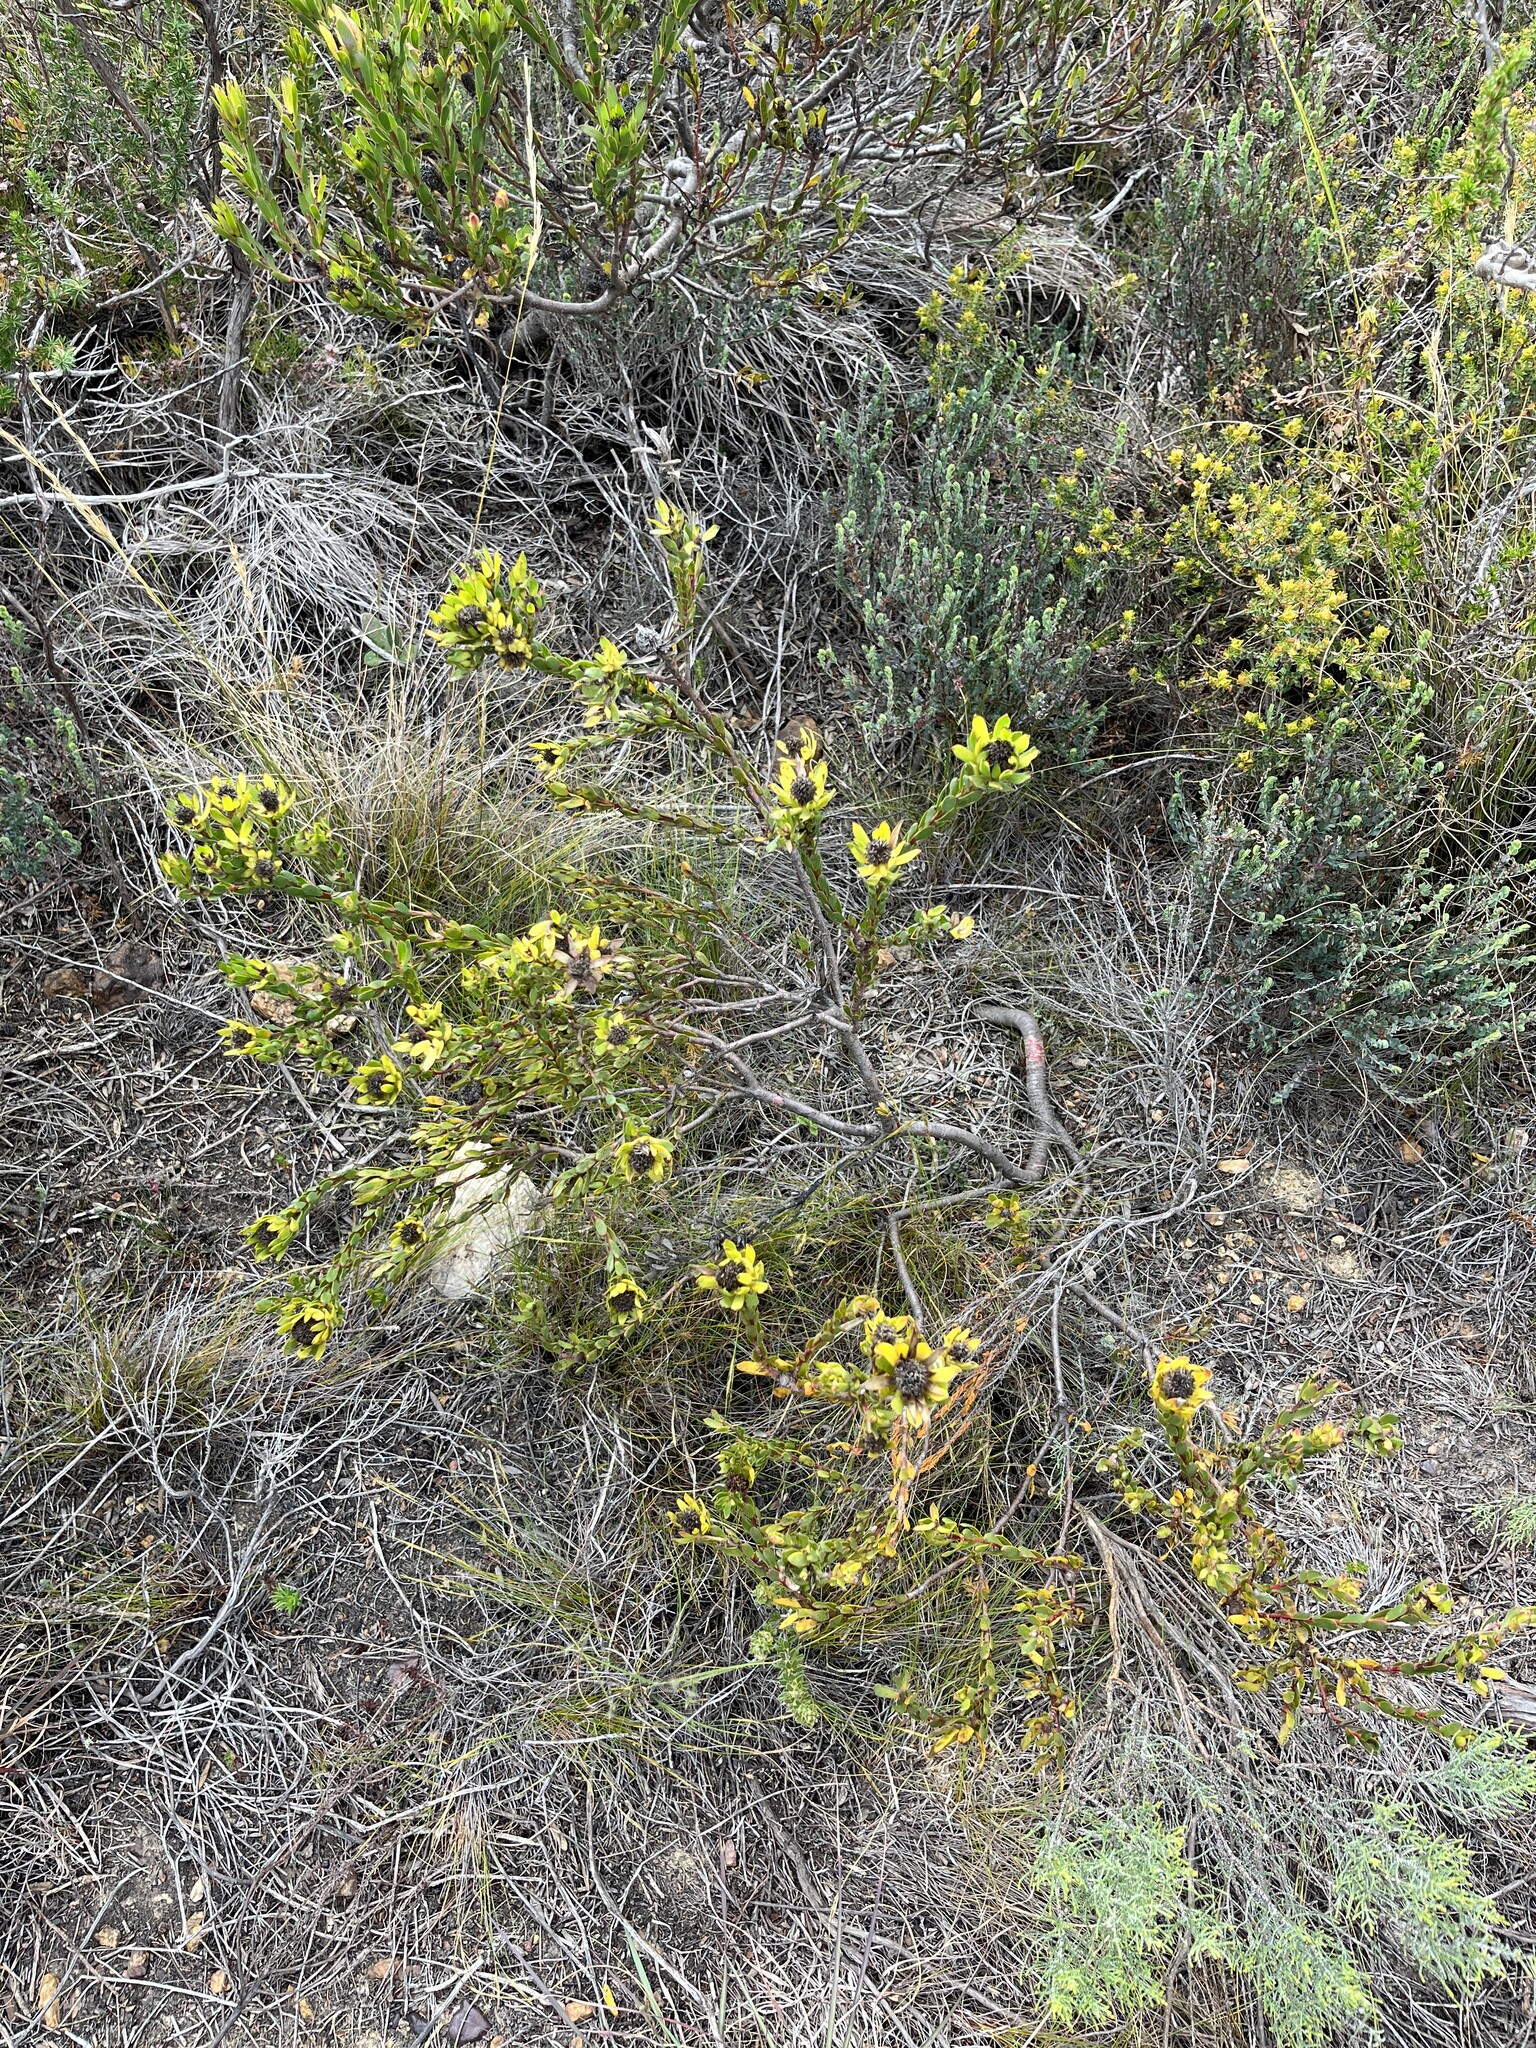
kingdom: Plantae
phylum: Tracheophyta
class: Magnoliopsida
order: Proteales
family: Proteaceae
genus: Leucadendron
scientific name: Leucadendron stelligerum
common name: Agulhas conebush
